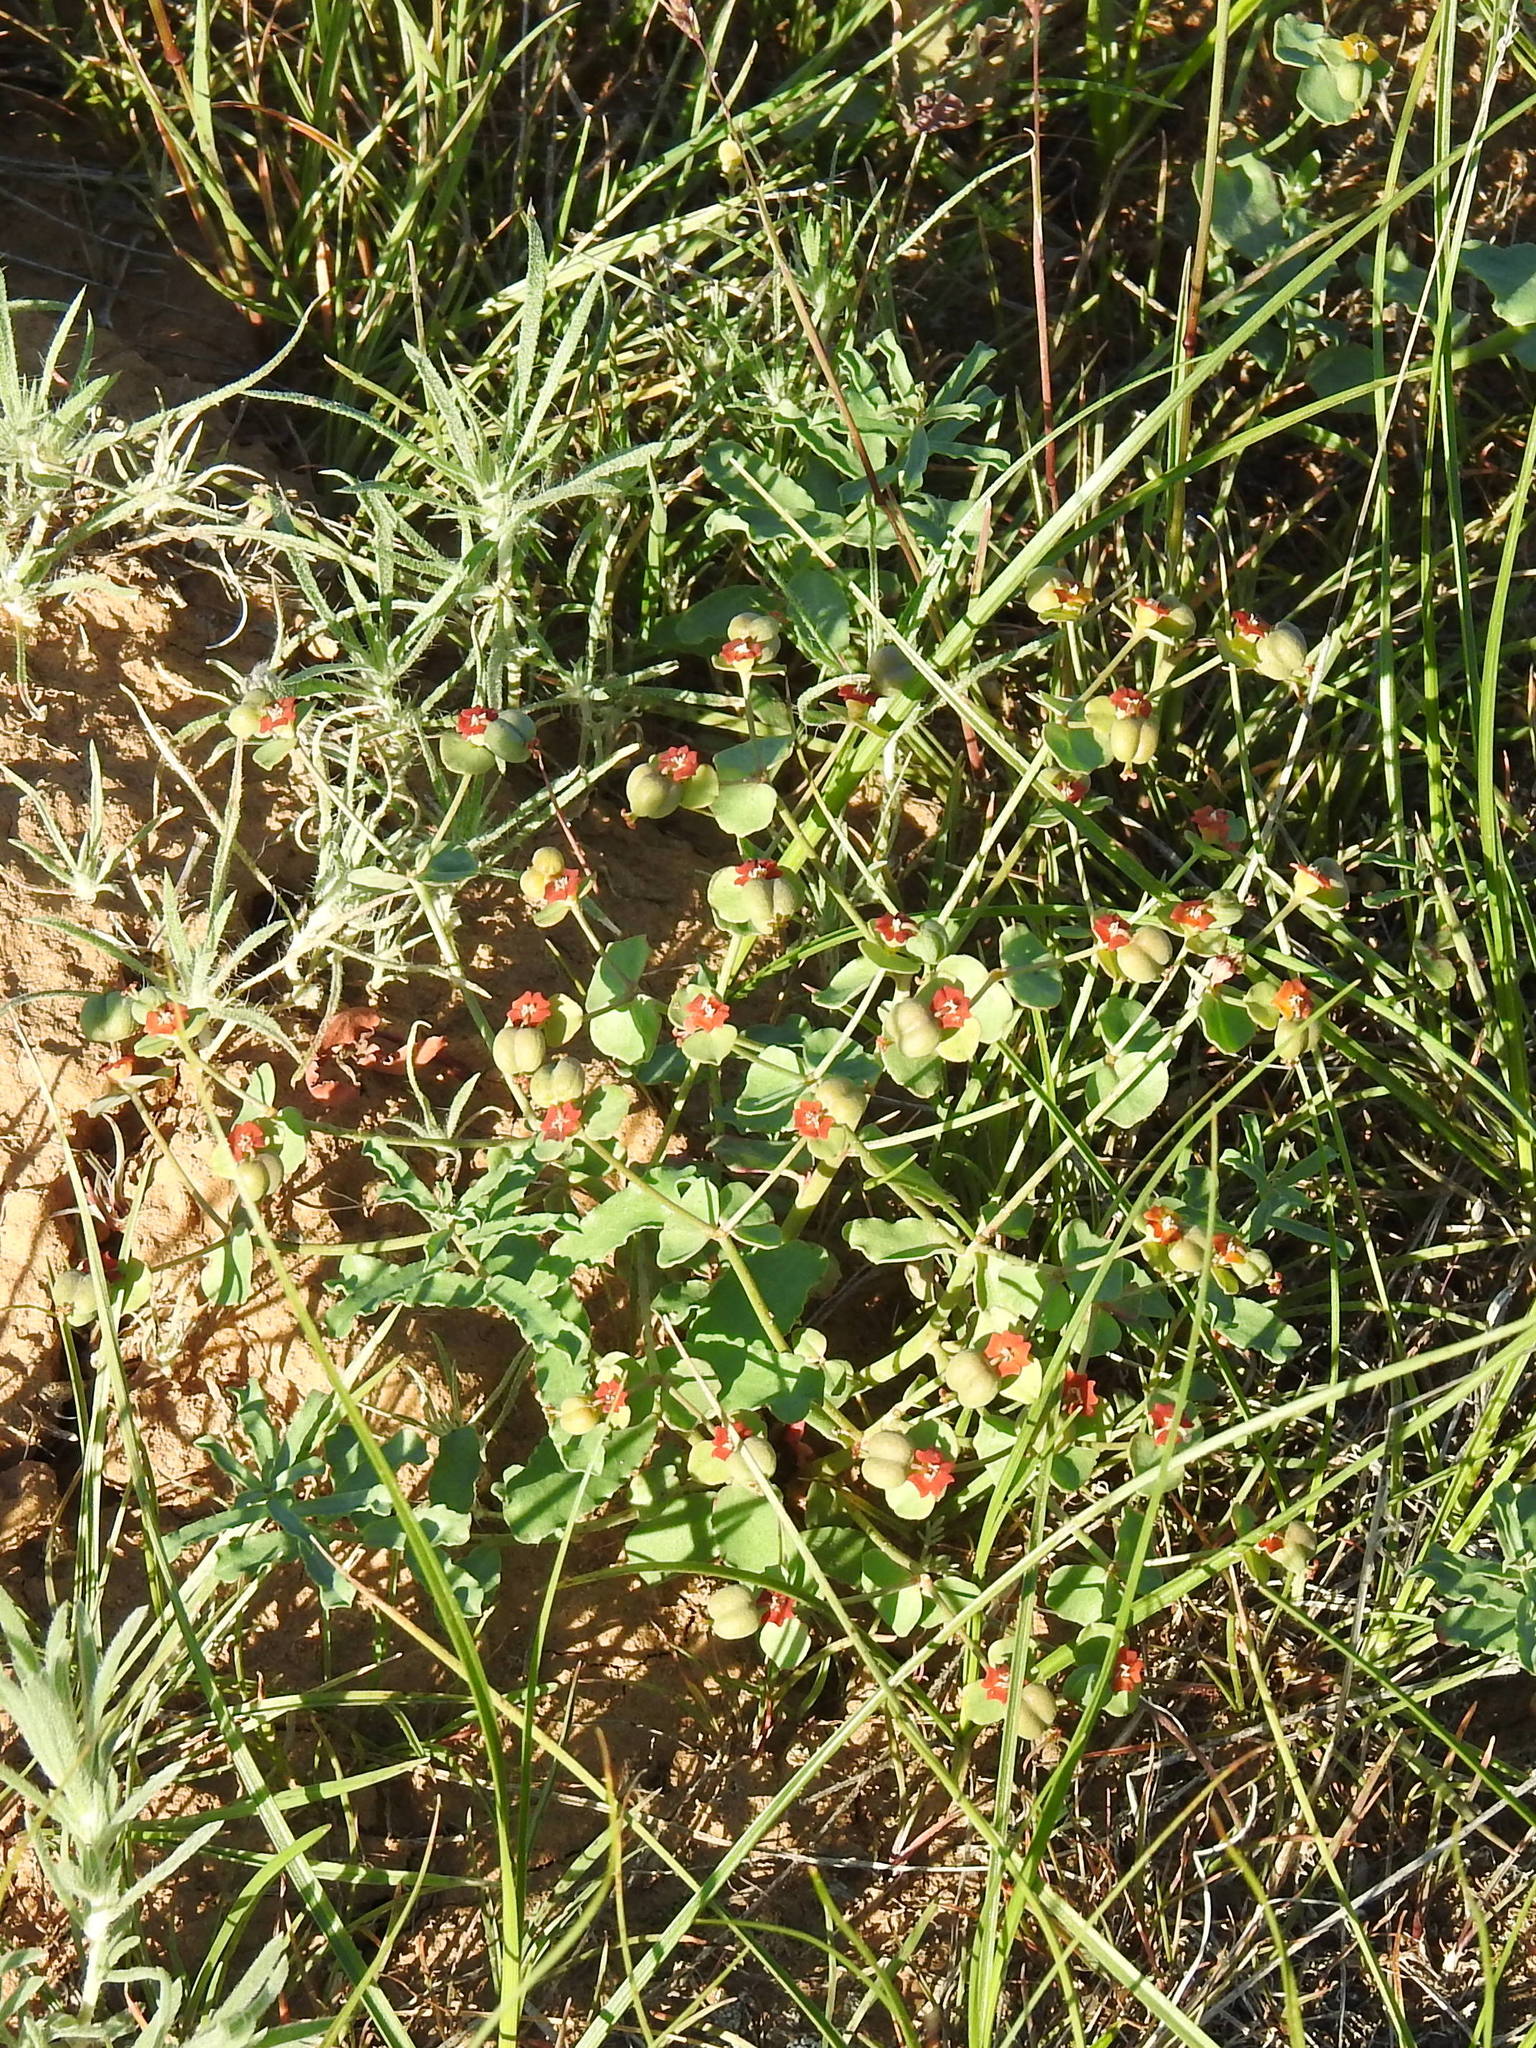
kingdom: Plantae
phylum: Tracheophyta
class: Magnoliopsida
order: Malpighiales
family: Euphorbiaceae
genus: Euphorbia
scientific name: Euphorbia undulata
